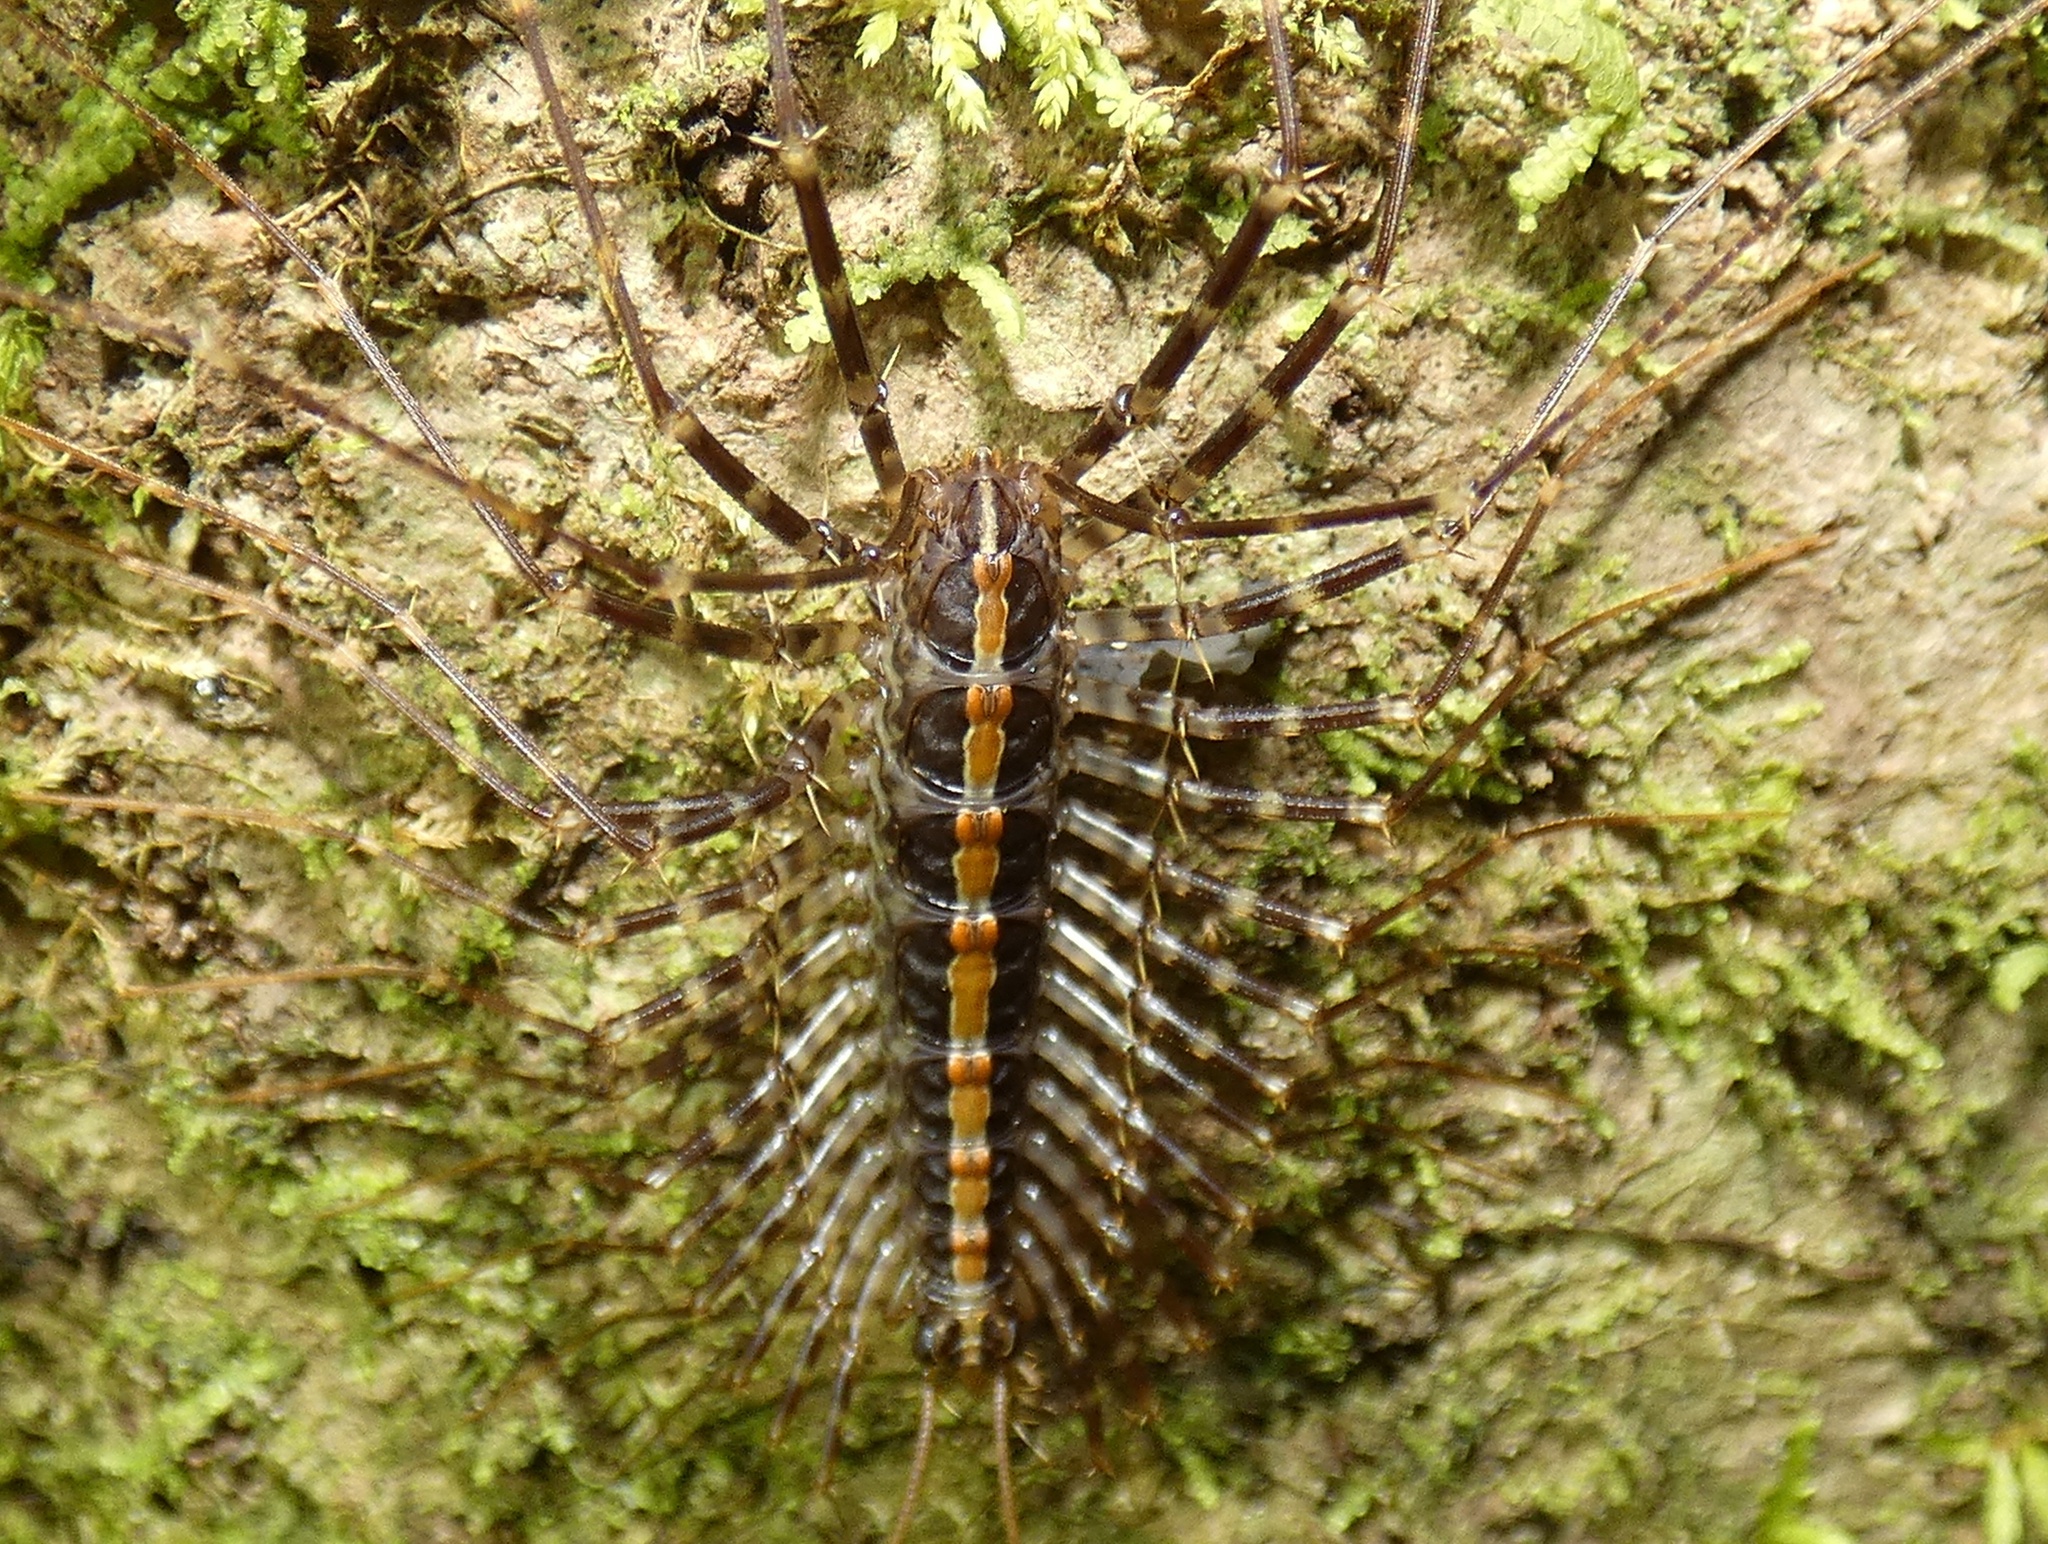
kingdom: Animalia
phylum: Arthropoda
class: Chilopoda
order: Scutigeromorpha
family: Pselliodidae
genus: Sphendononema
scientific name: Sphendononema guildingii
